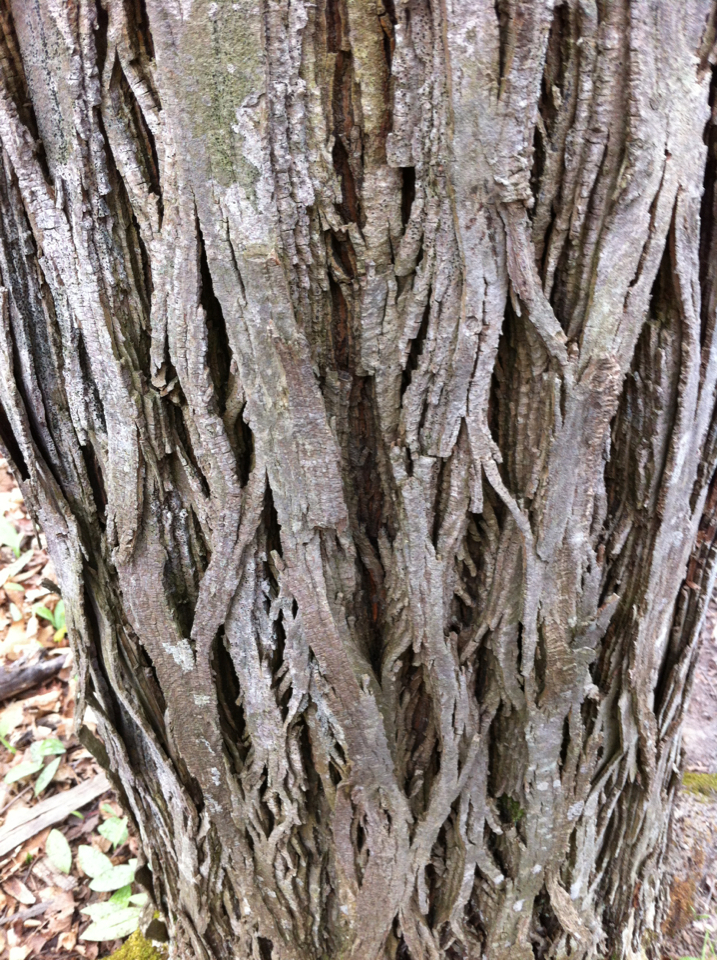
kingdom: Plantae
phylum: Tracheophyta
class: Magnoliopsida
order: Fagales
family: Juglandaceae
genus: Carya
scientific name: Carya ovata
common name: Shagbark hickory
